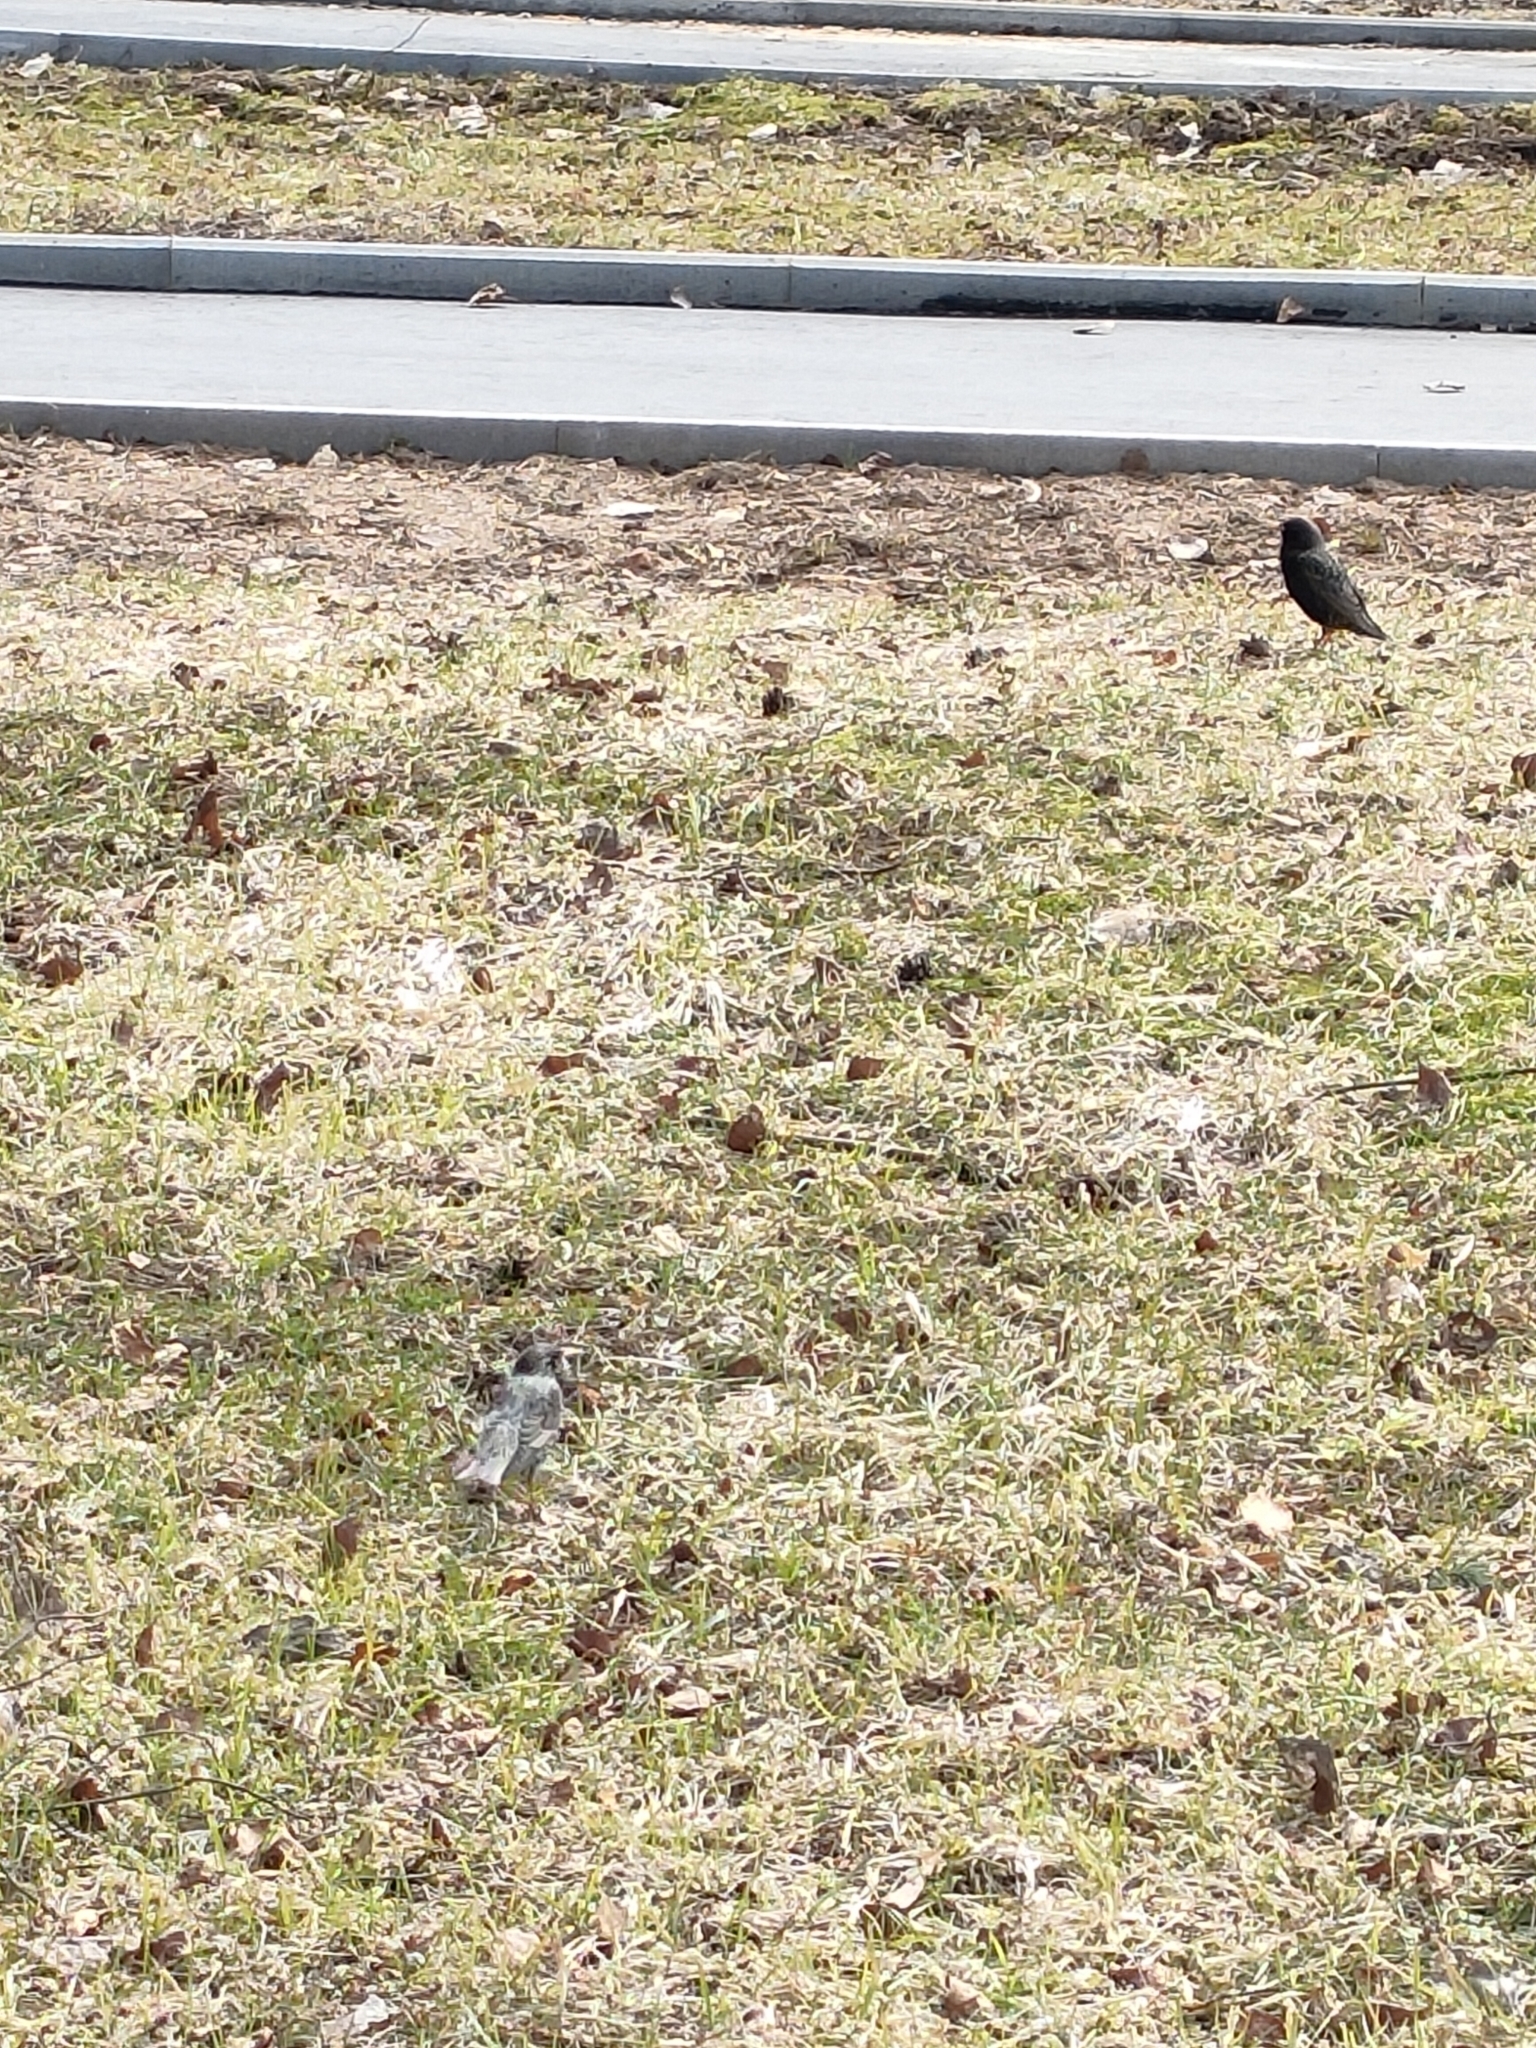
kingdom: Animalia
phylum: Chordata
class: Aves
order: Passeriformes
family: Sturnidae
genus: Sturnus
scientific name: Sturnus vulgaris
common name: Common starling
